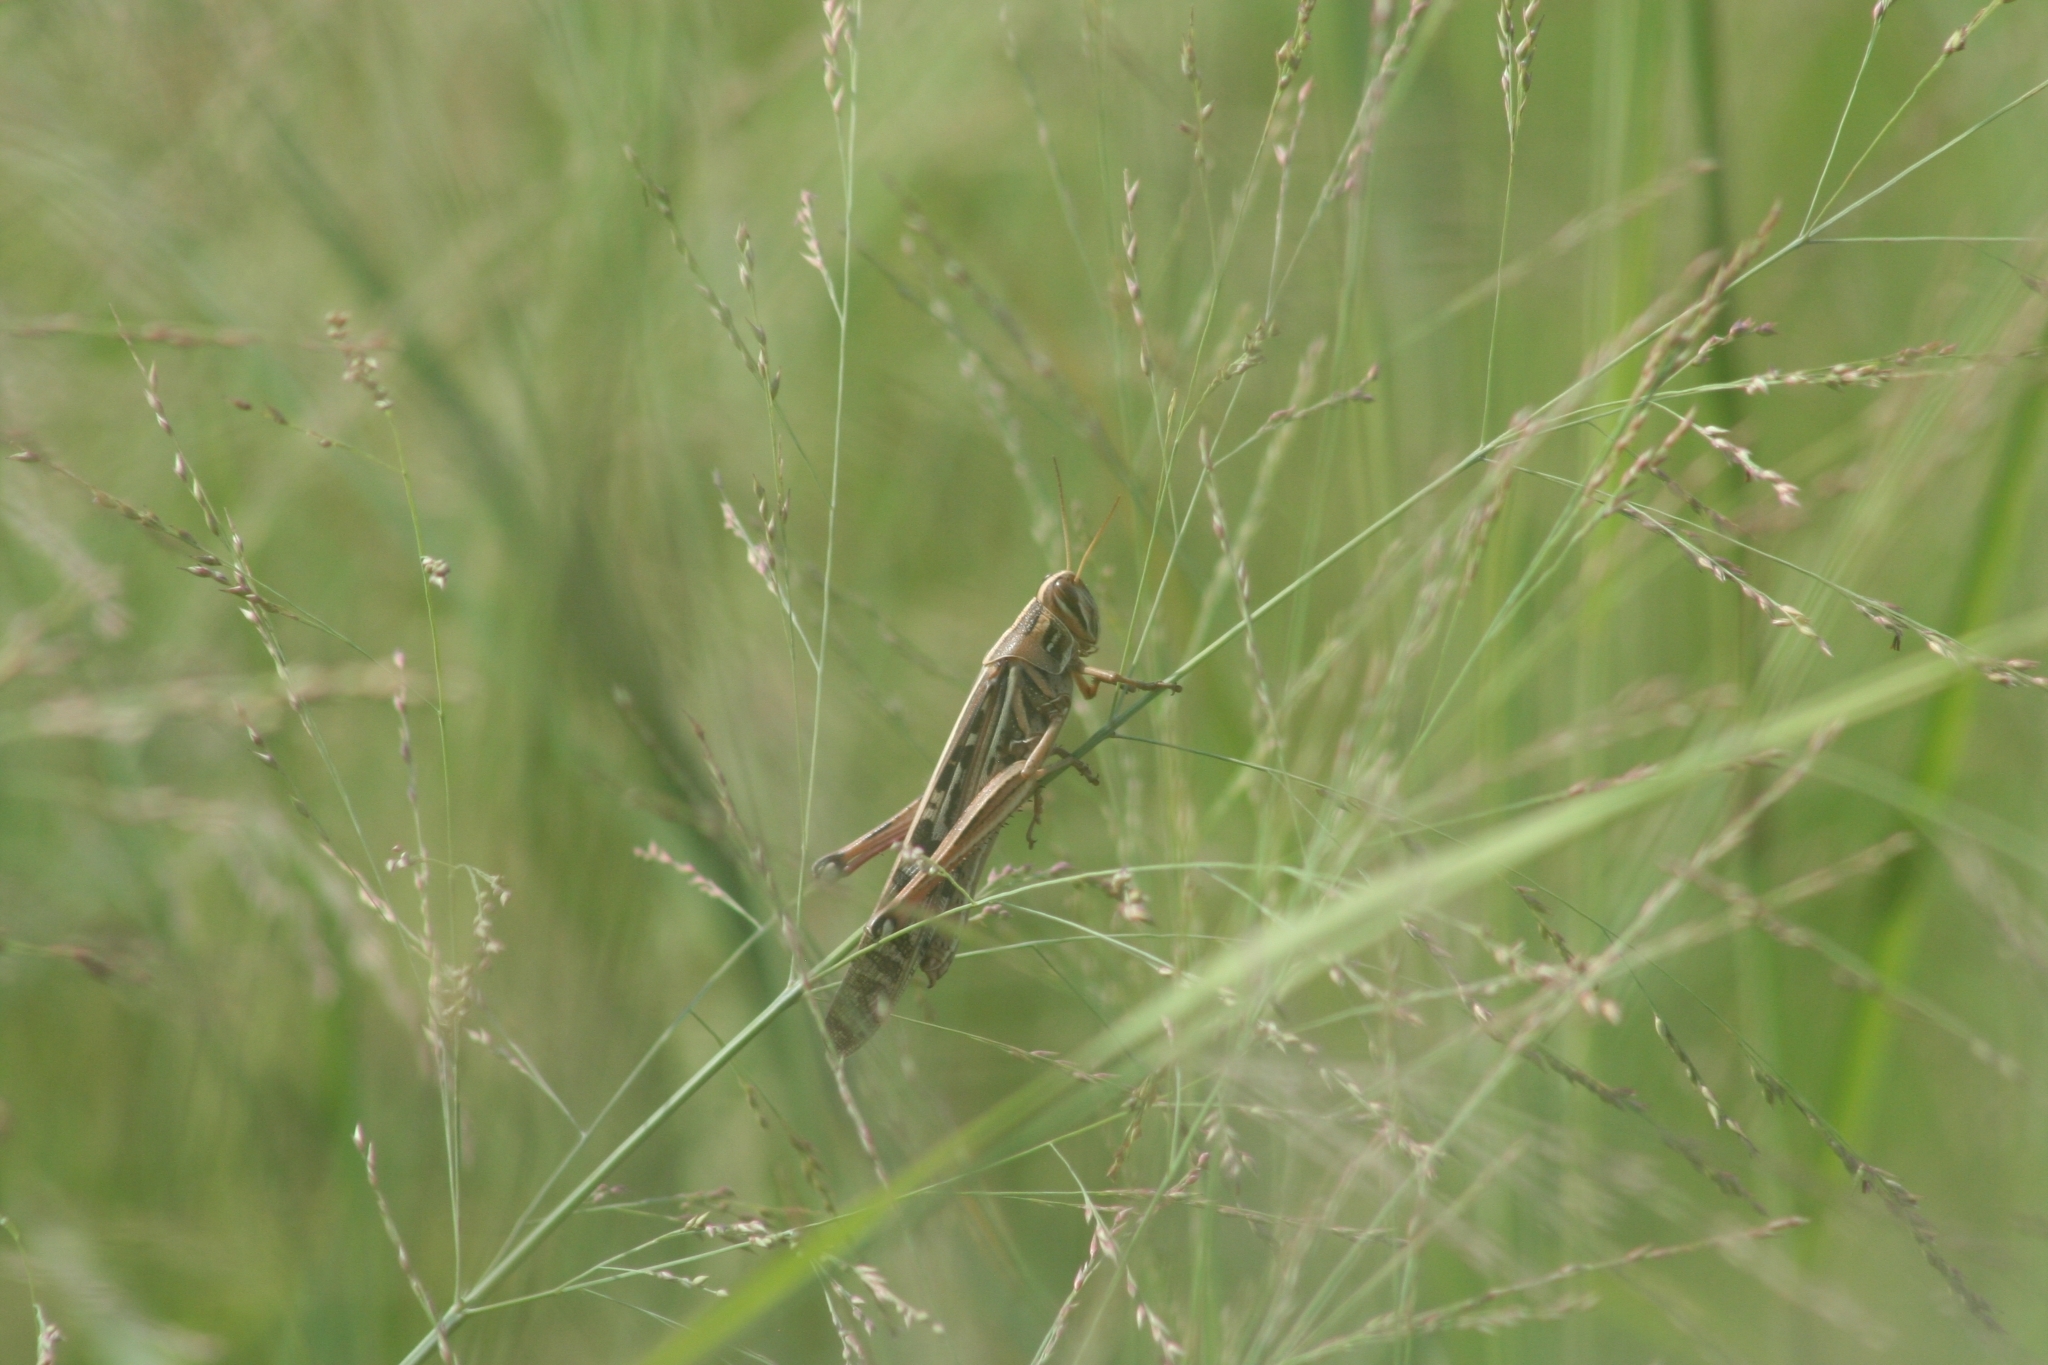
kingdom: Animalia
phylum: Arthropoda
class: Insecta
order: Orthoptera
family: Acrididae
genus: Schistocerca
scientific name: Schistocerca americana
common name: American bird locust
